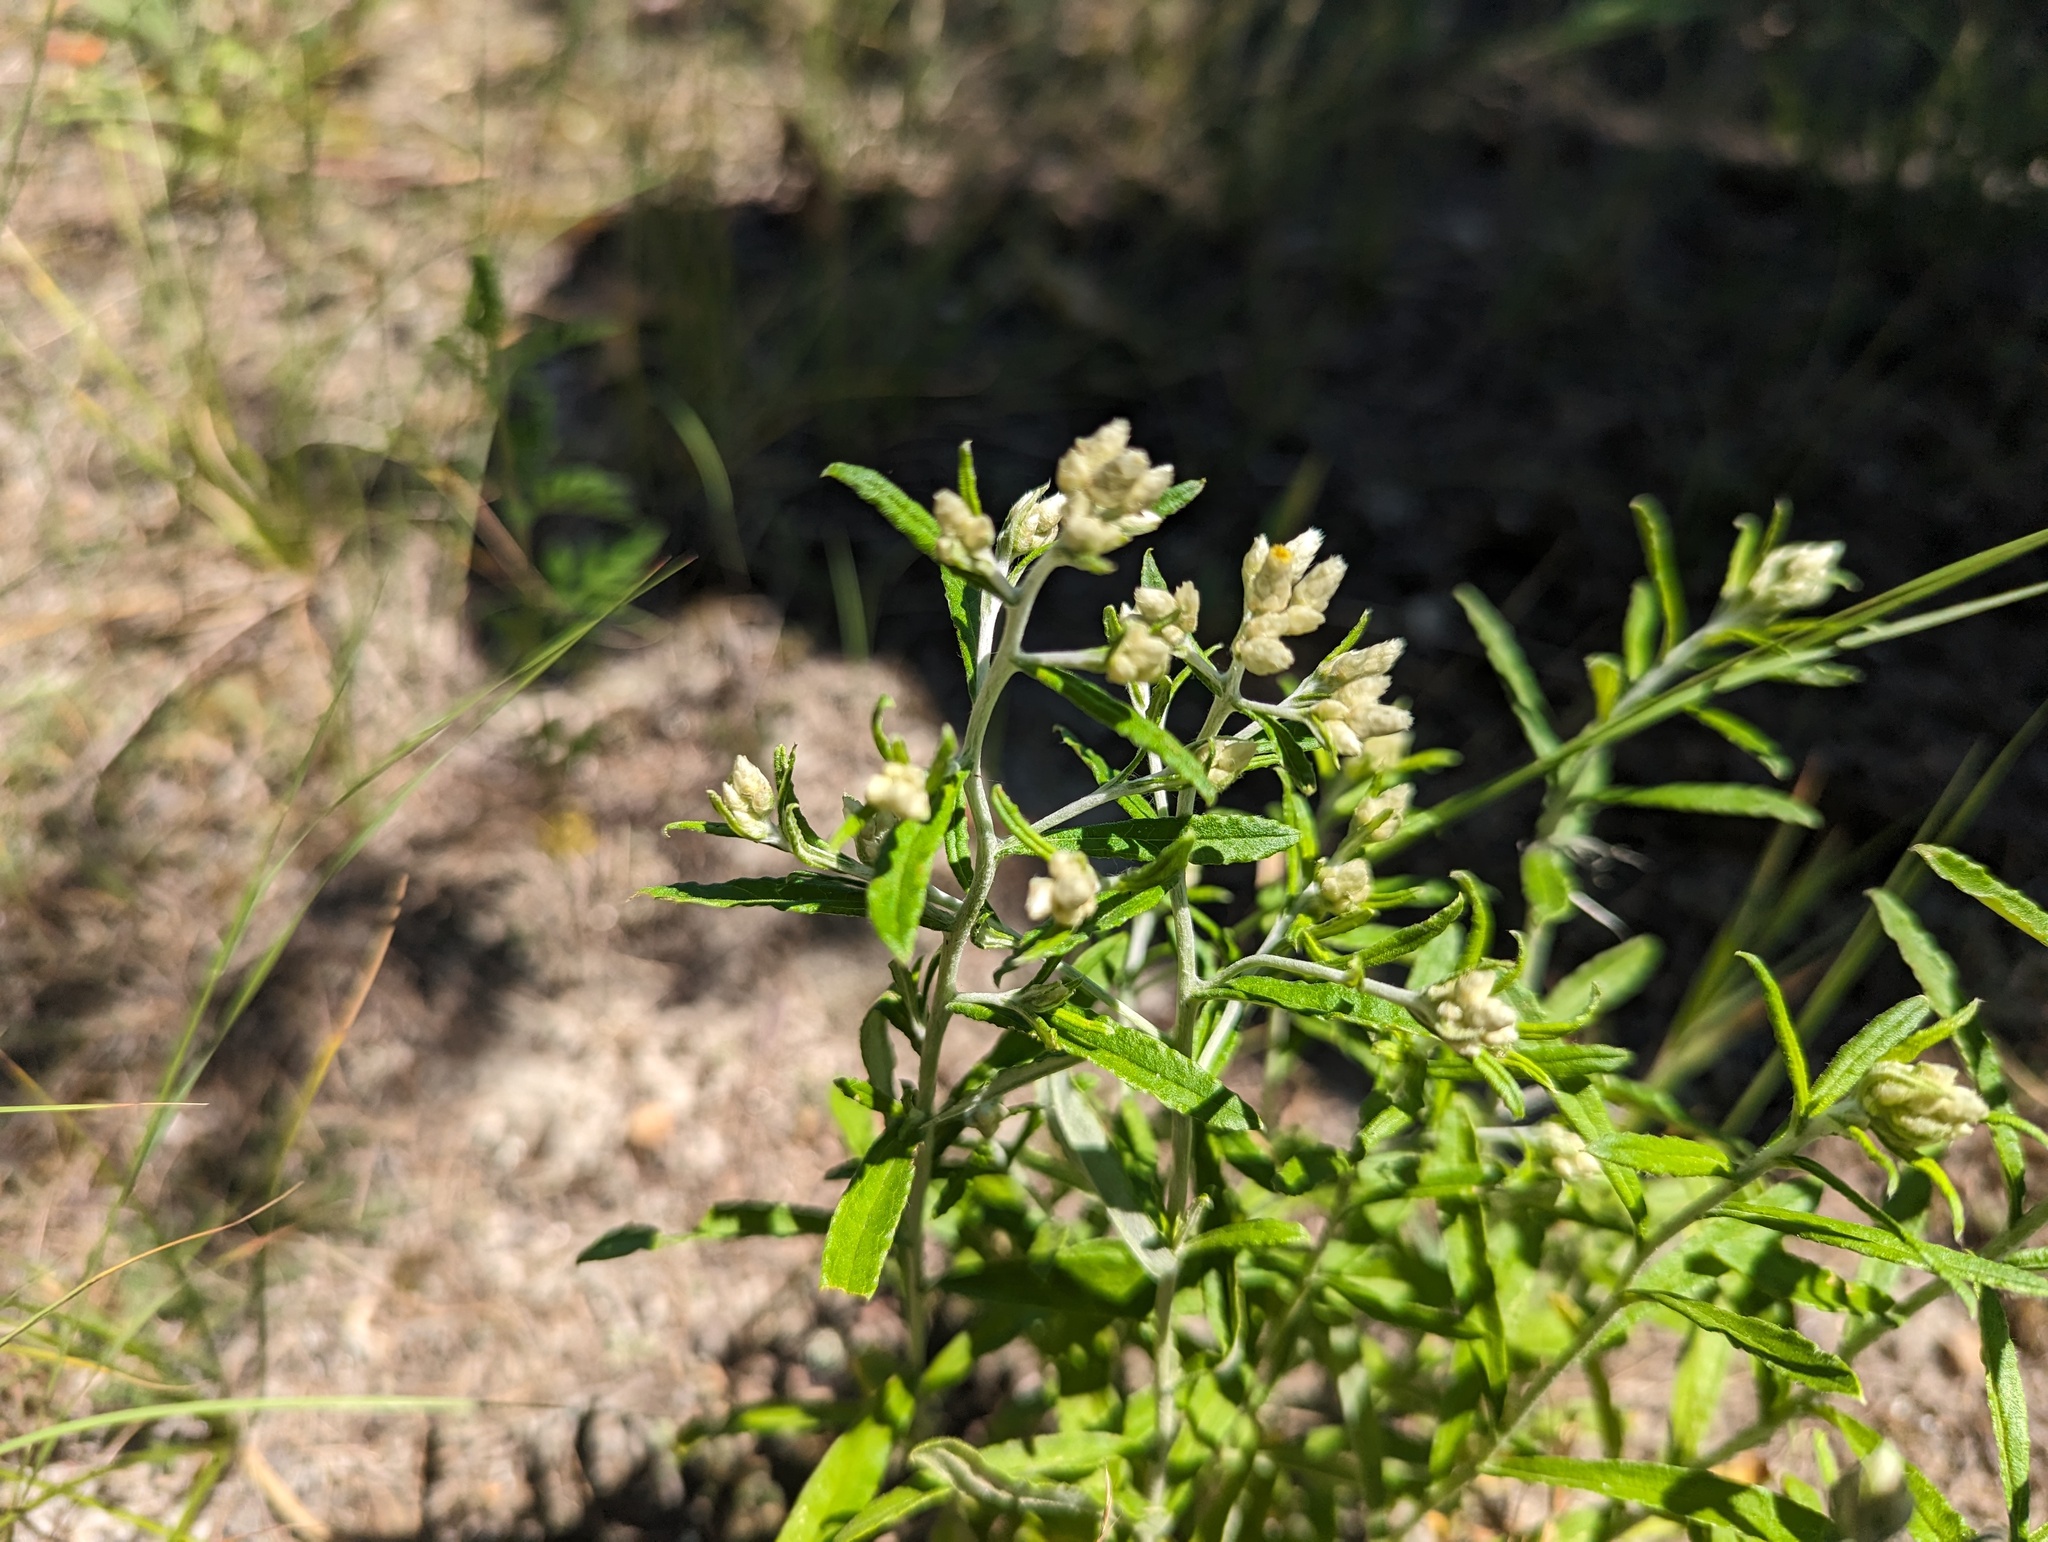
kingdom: Plantae
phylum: Tracheophyta
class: Magnoliopsida
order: Asterales
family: Asteraceae
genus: Pseudognaphalium
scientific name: Pseudognaphalium obtusifolium
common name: Eastern rabbit-tobacco
